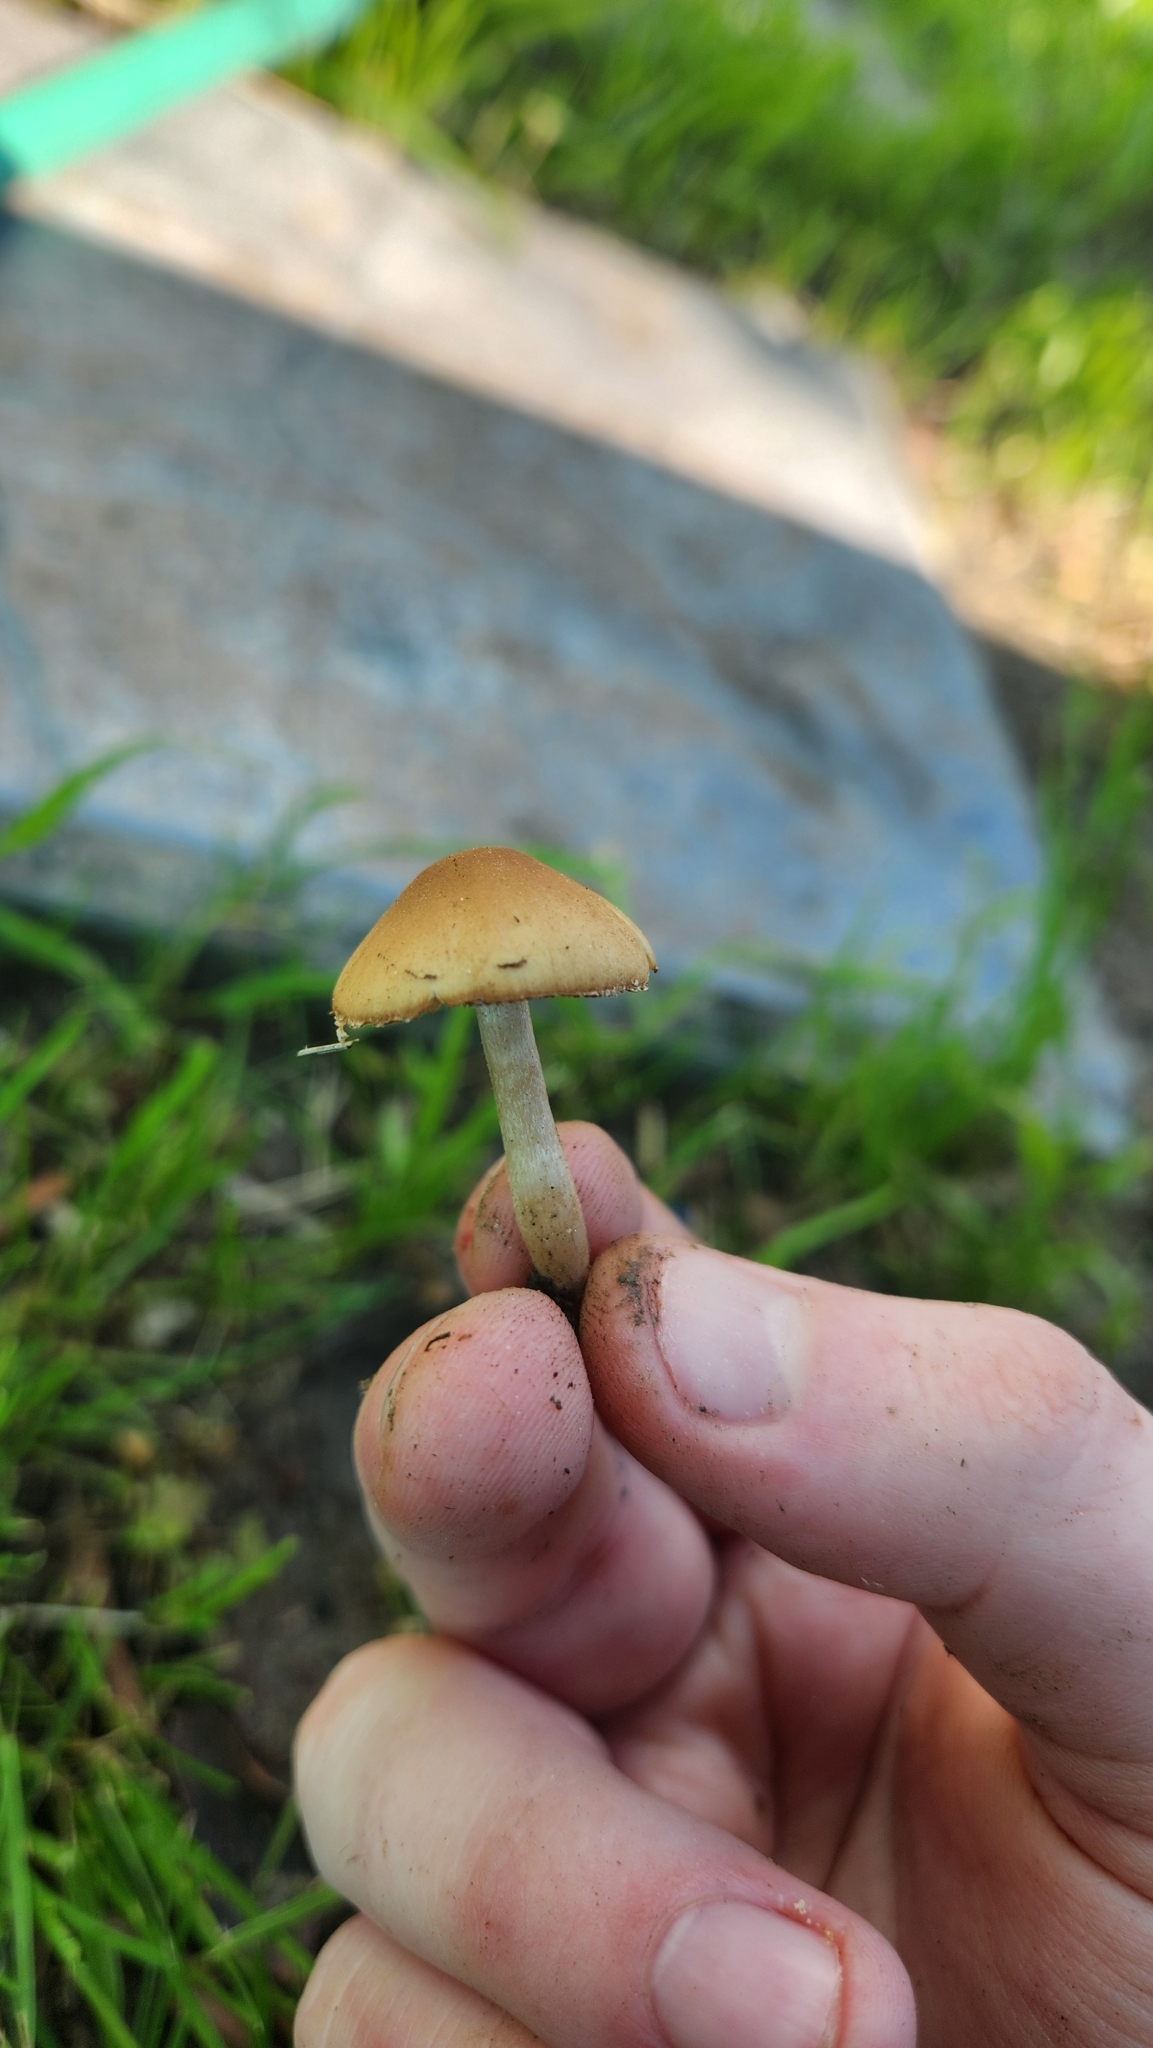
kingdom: Fungi
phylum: Basidiomycota
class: Agaricomycetes
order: Agaricales
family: Strophariaceae
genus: Agrocybe
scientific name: Agrocybe pediades
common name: Common fieldcap
